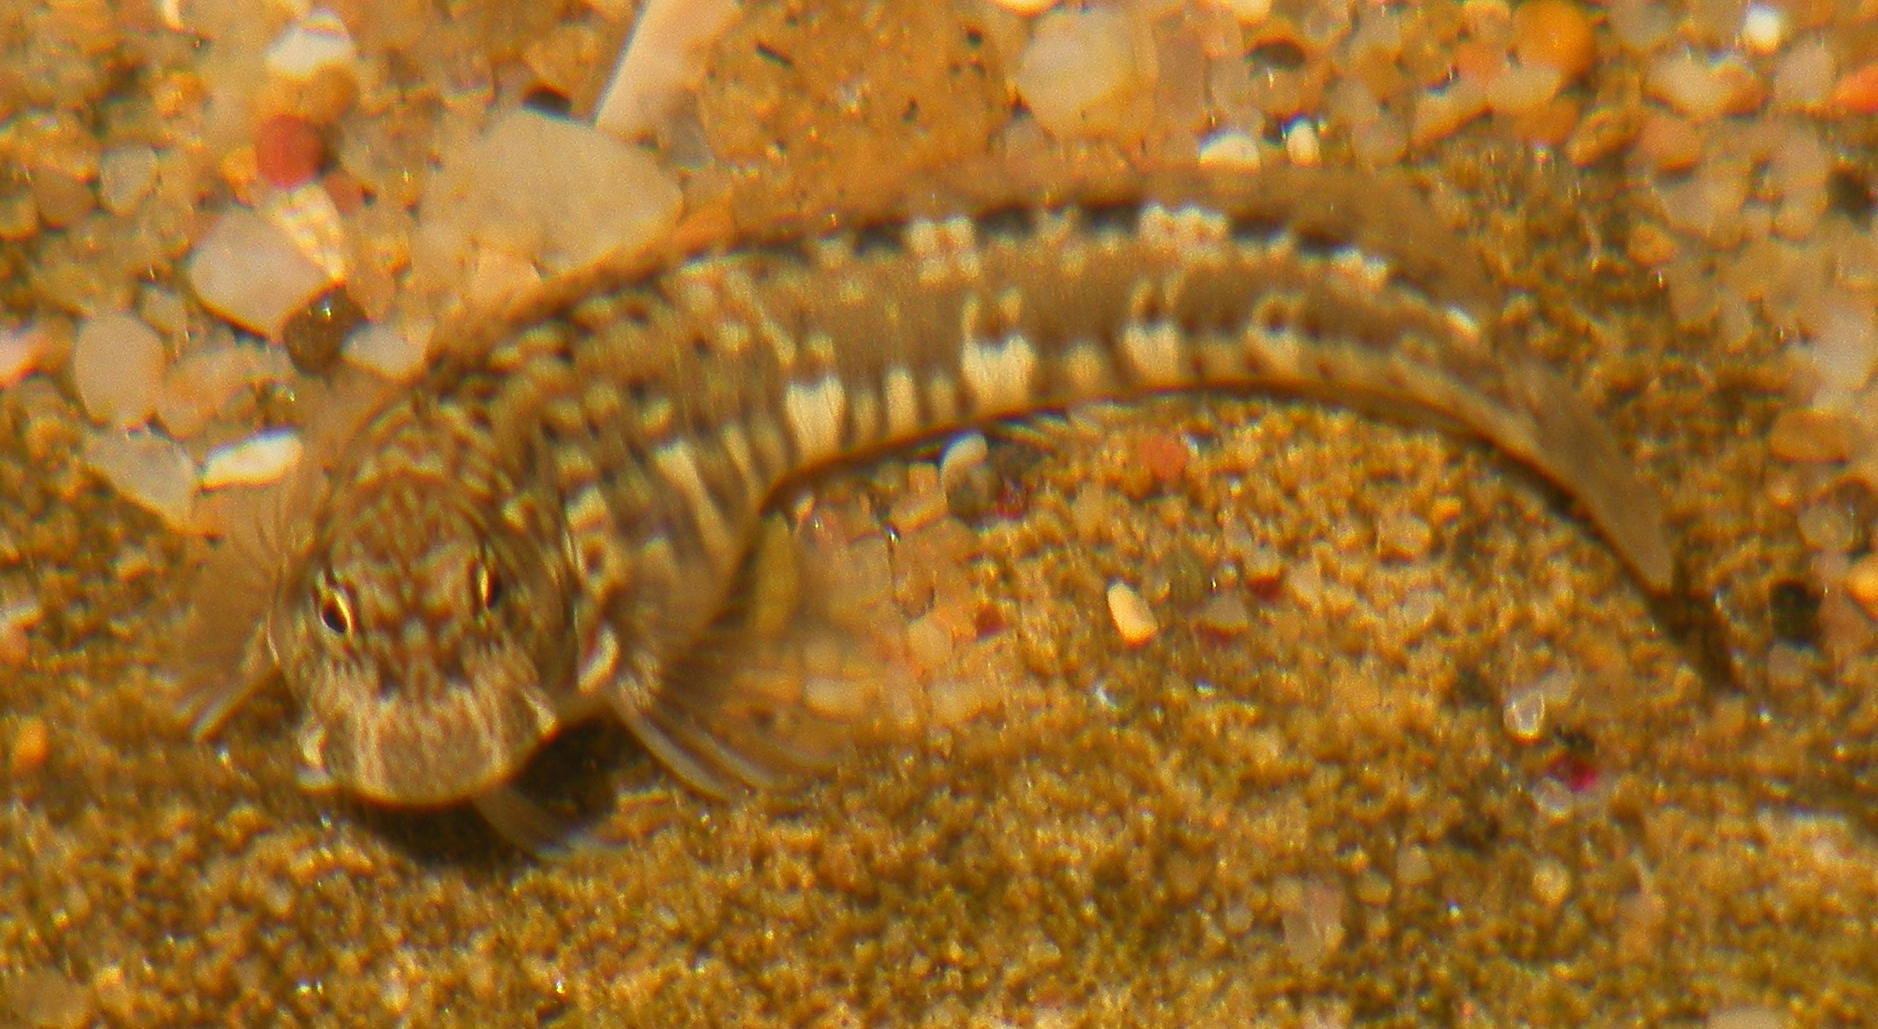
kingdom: Animalia
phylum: Chordata
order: Perciformes
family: Blenniidae
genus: Istiblennius
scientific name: Istiblennius dussumieri
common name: Dussumier's rockskipper
